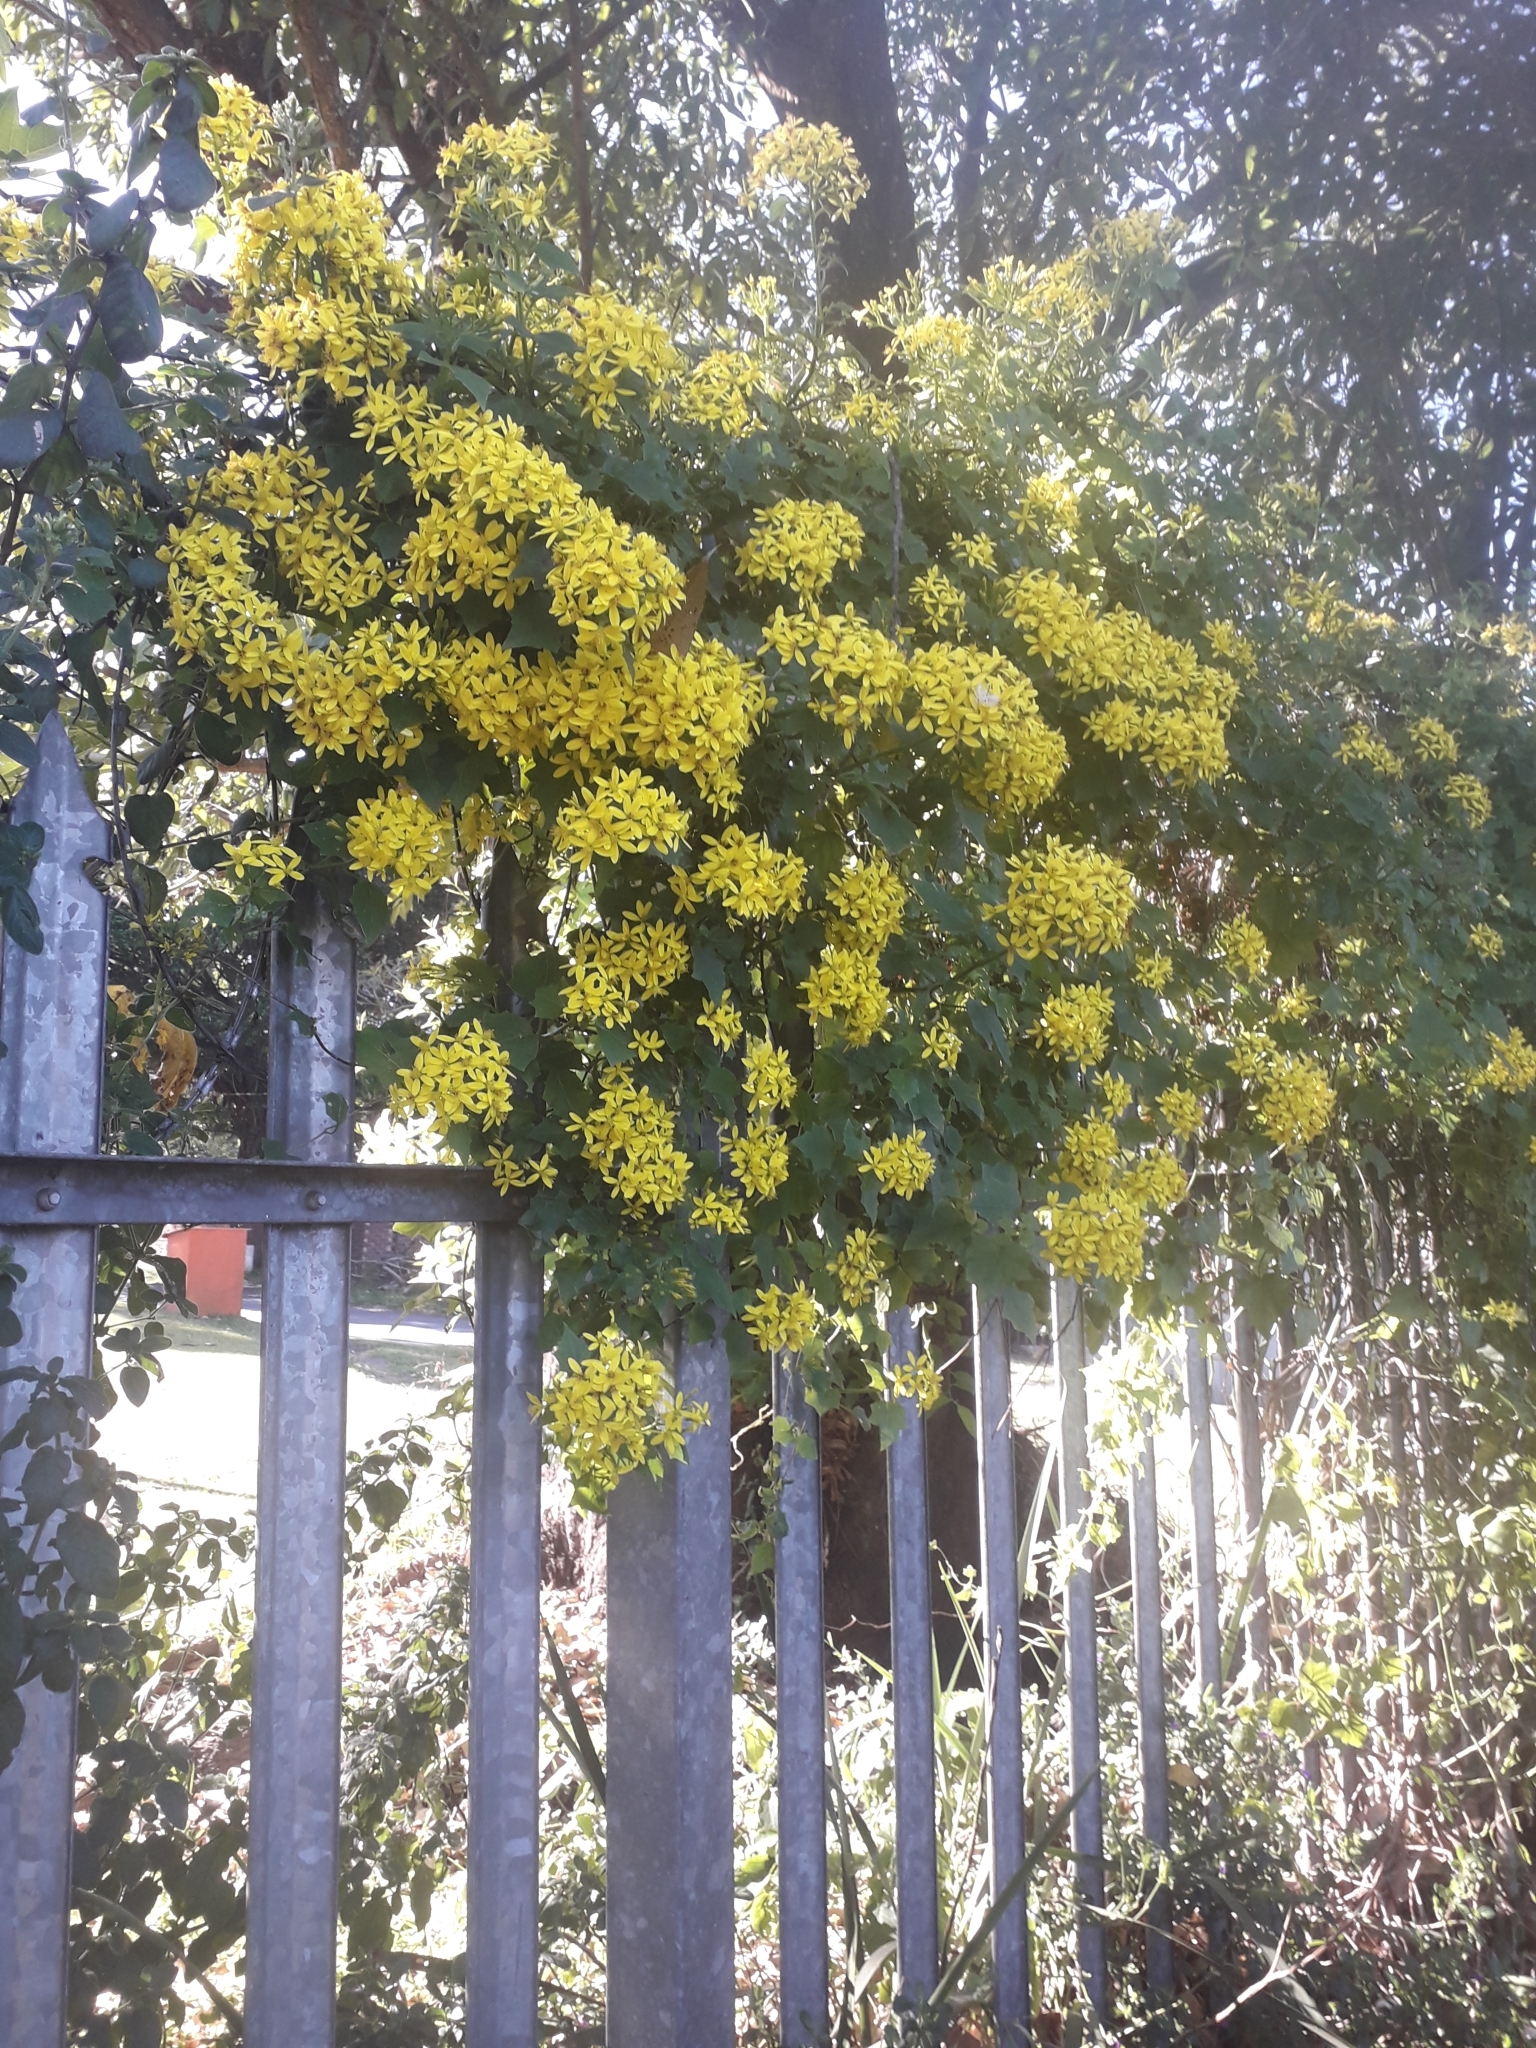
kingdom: Plantae
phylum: Tracheophyta
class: Magnoliopsida
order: Asterales
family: Asteraceae
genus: Senecio
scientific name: Senecio tamoides
